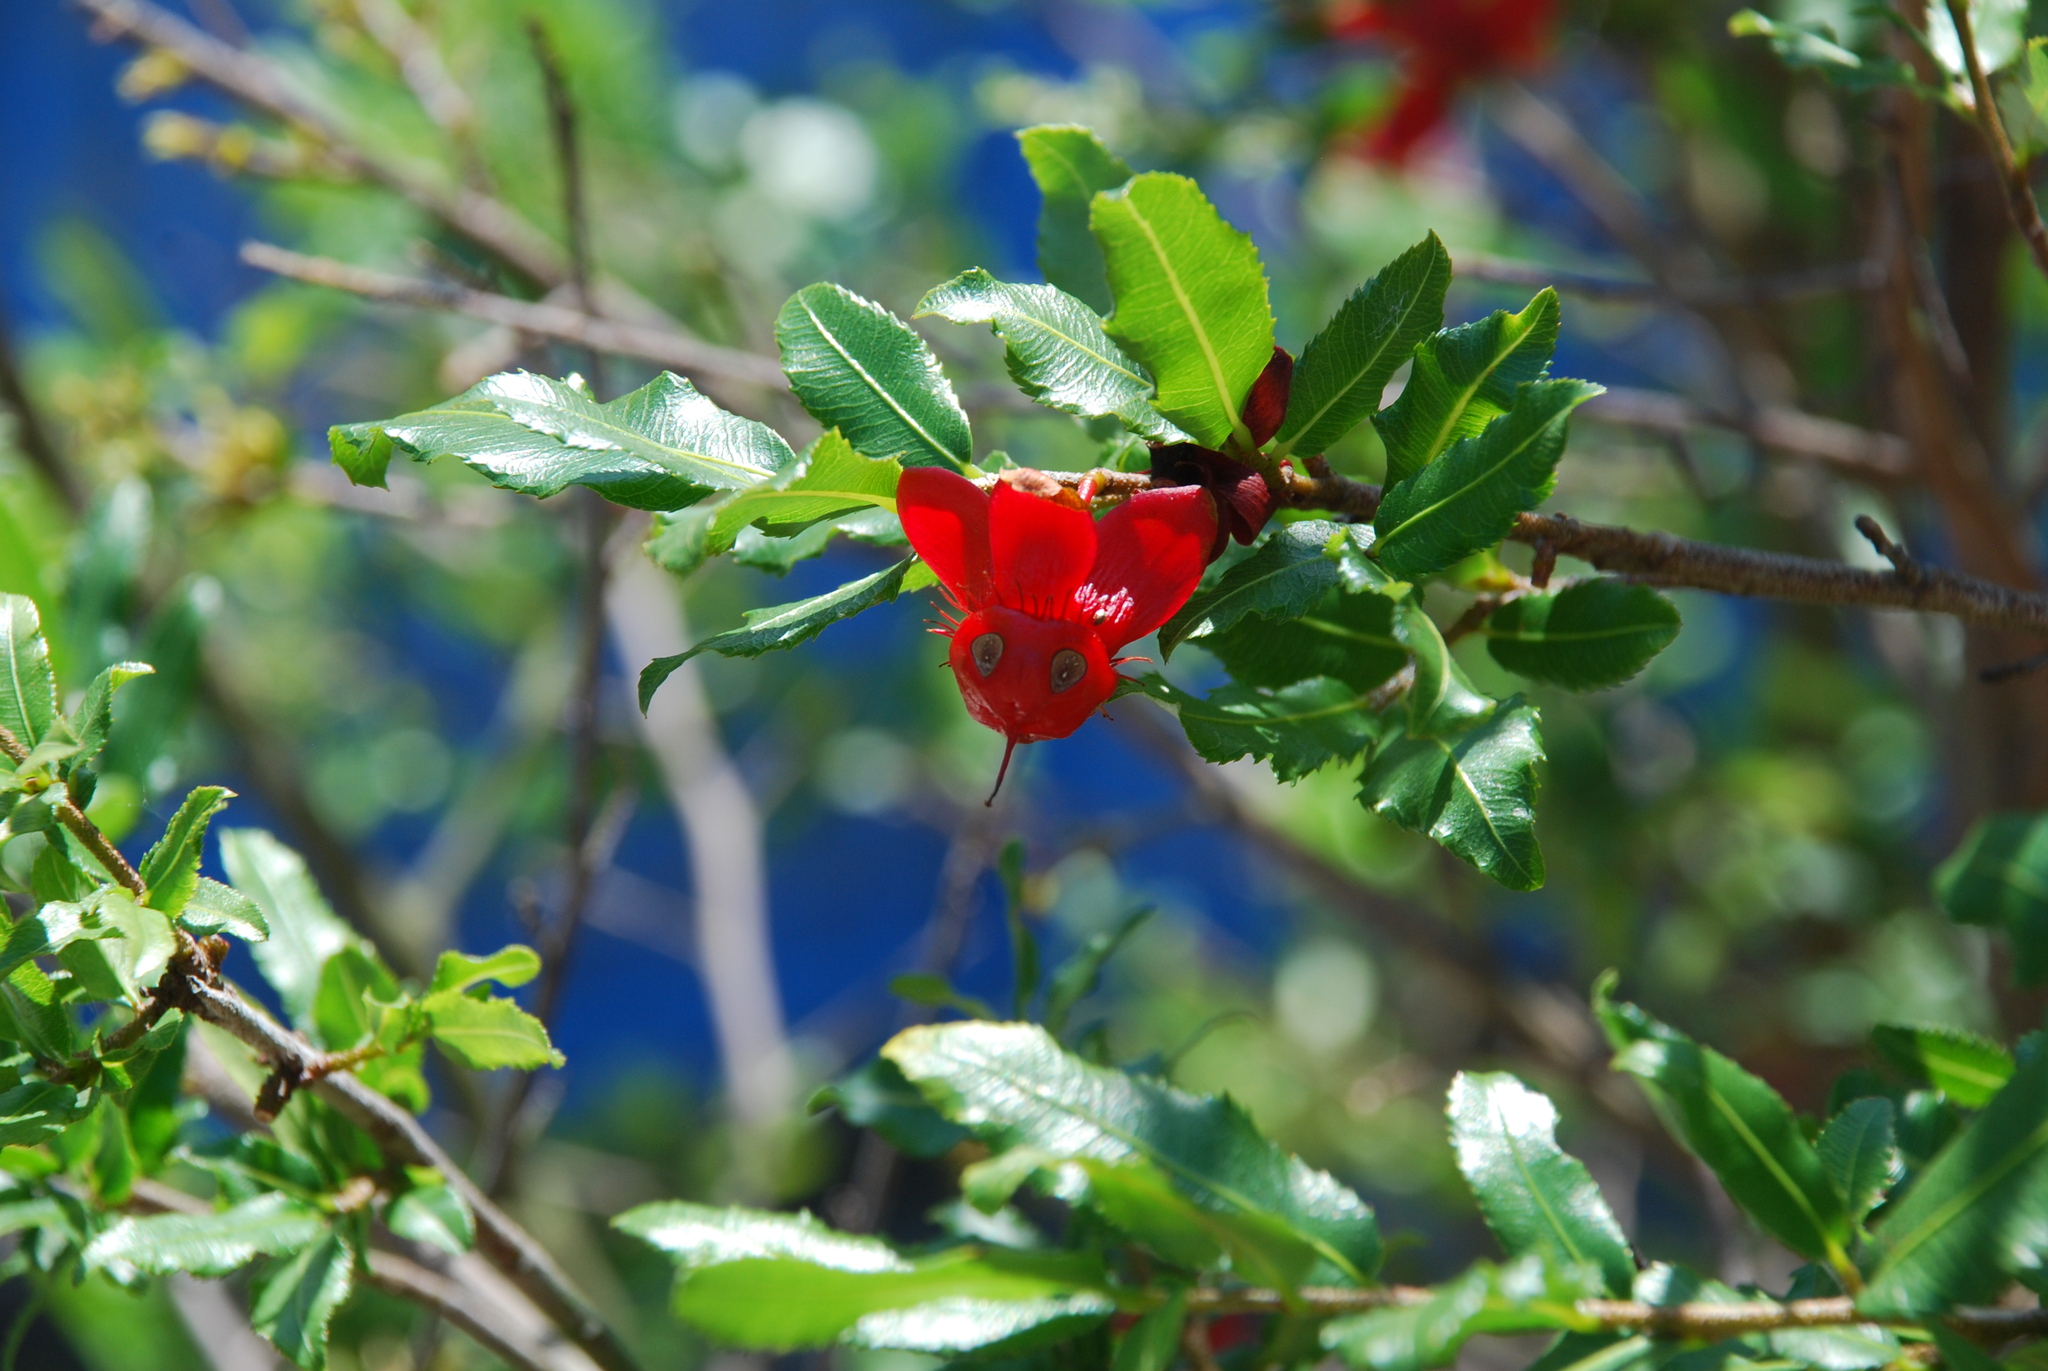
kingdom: Plantae
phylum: Tracheophyta
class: Magnoliopsida
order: Malpighiales
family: Ochnaceae
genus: Ochna
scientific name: Ochna serrulata
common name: Mickey mouse plant
